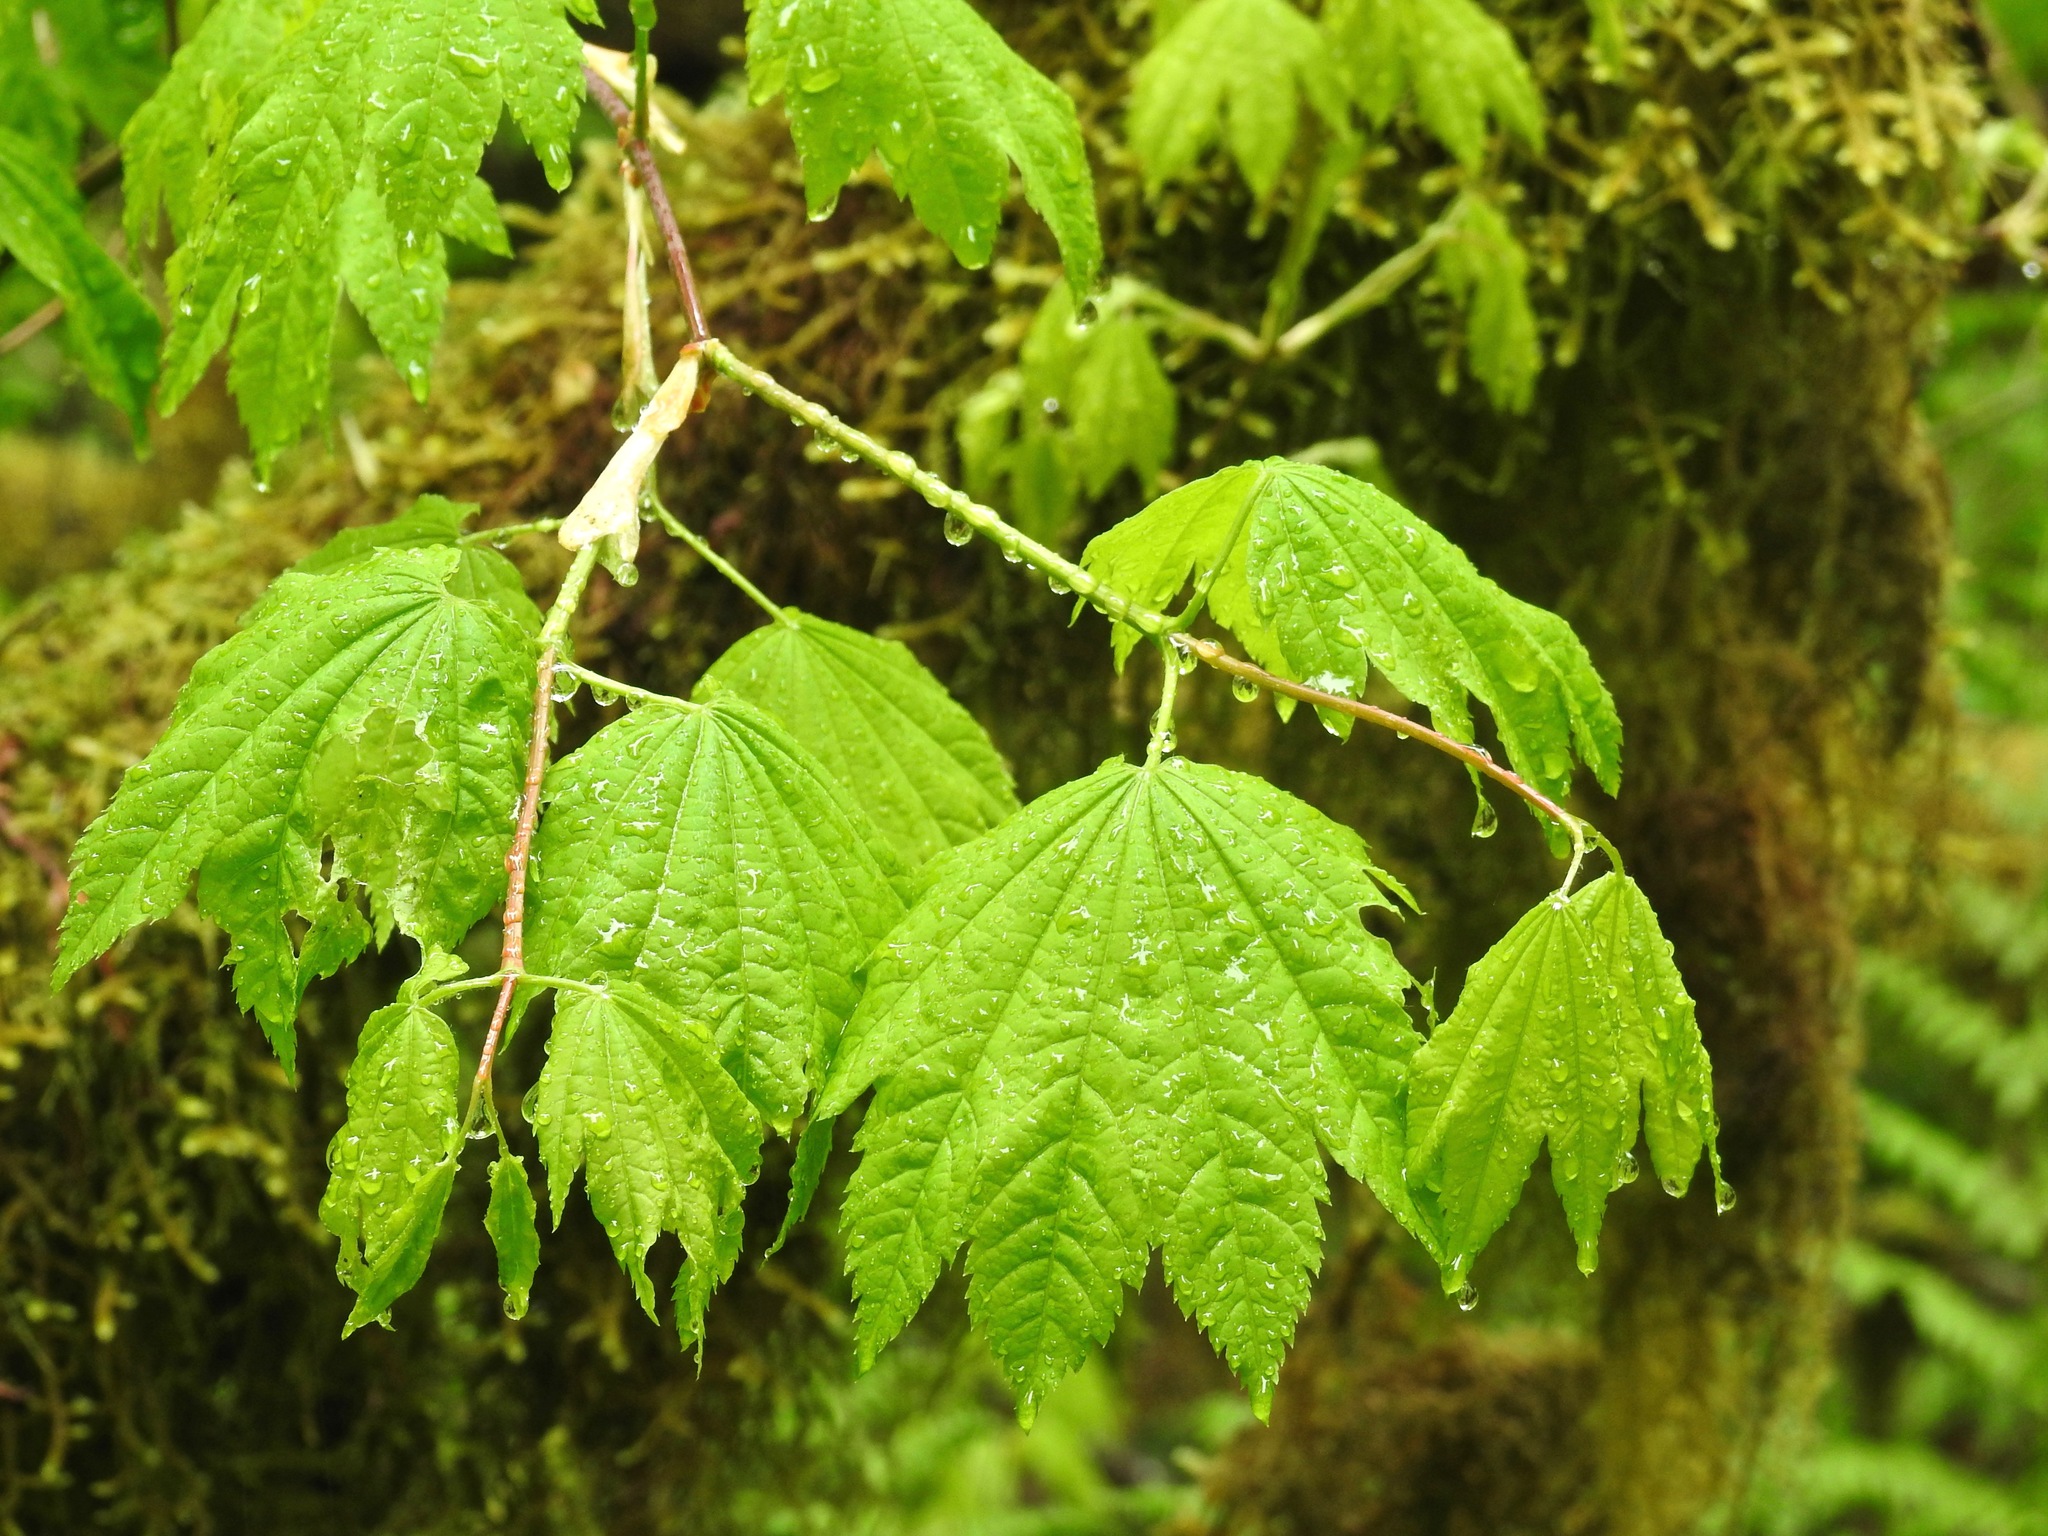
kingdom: Plantae
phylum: Tracheophyta
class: Magnoliopsida
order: Sapindales
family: Sapindaceae
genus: Acer
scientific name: Acer circinatum
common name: Vine maple
